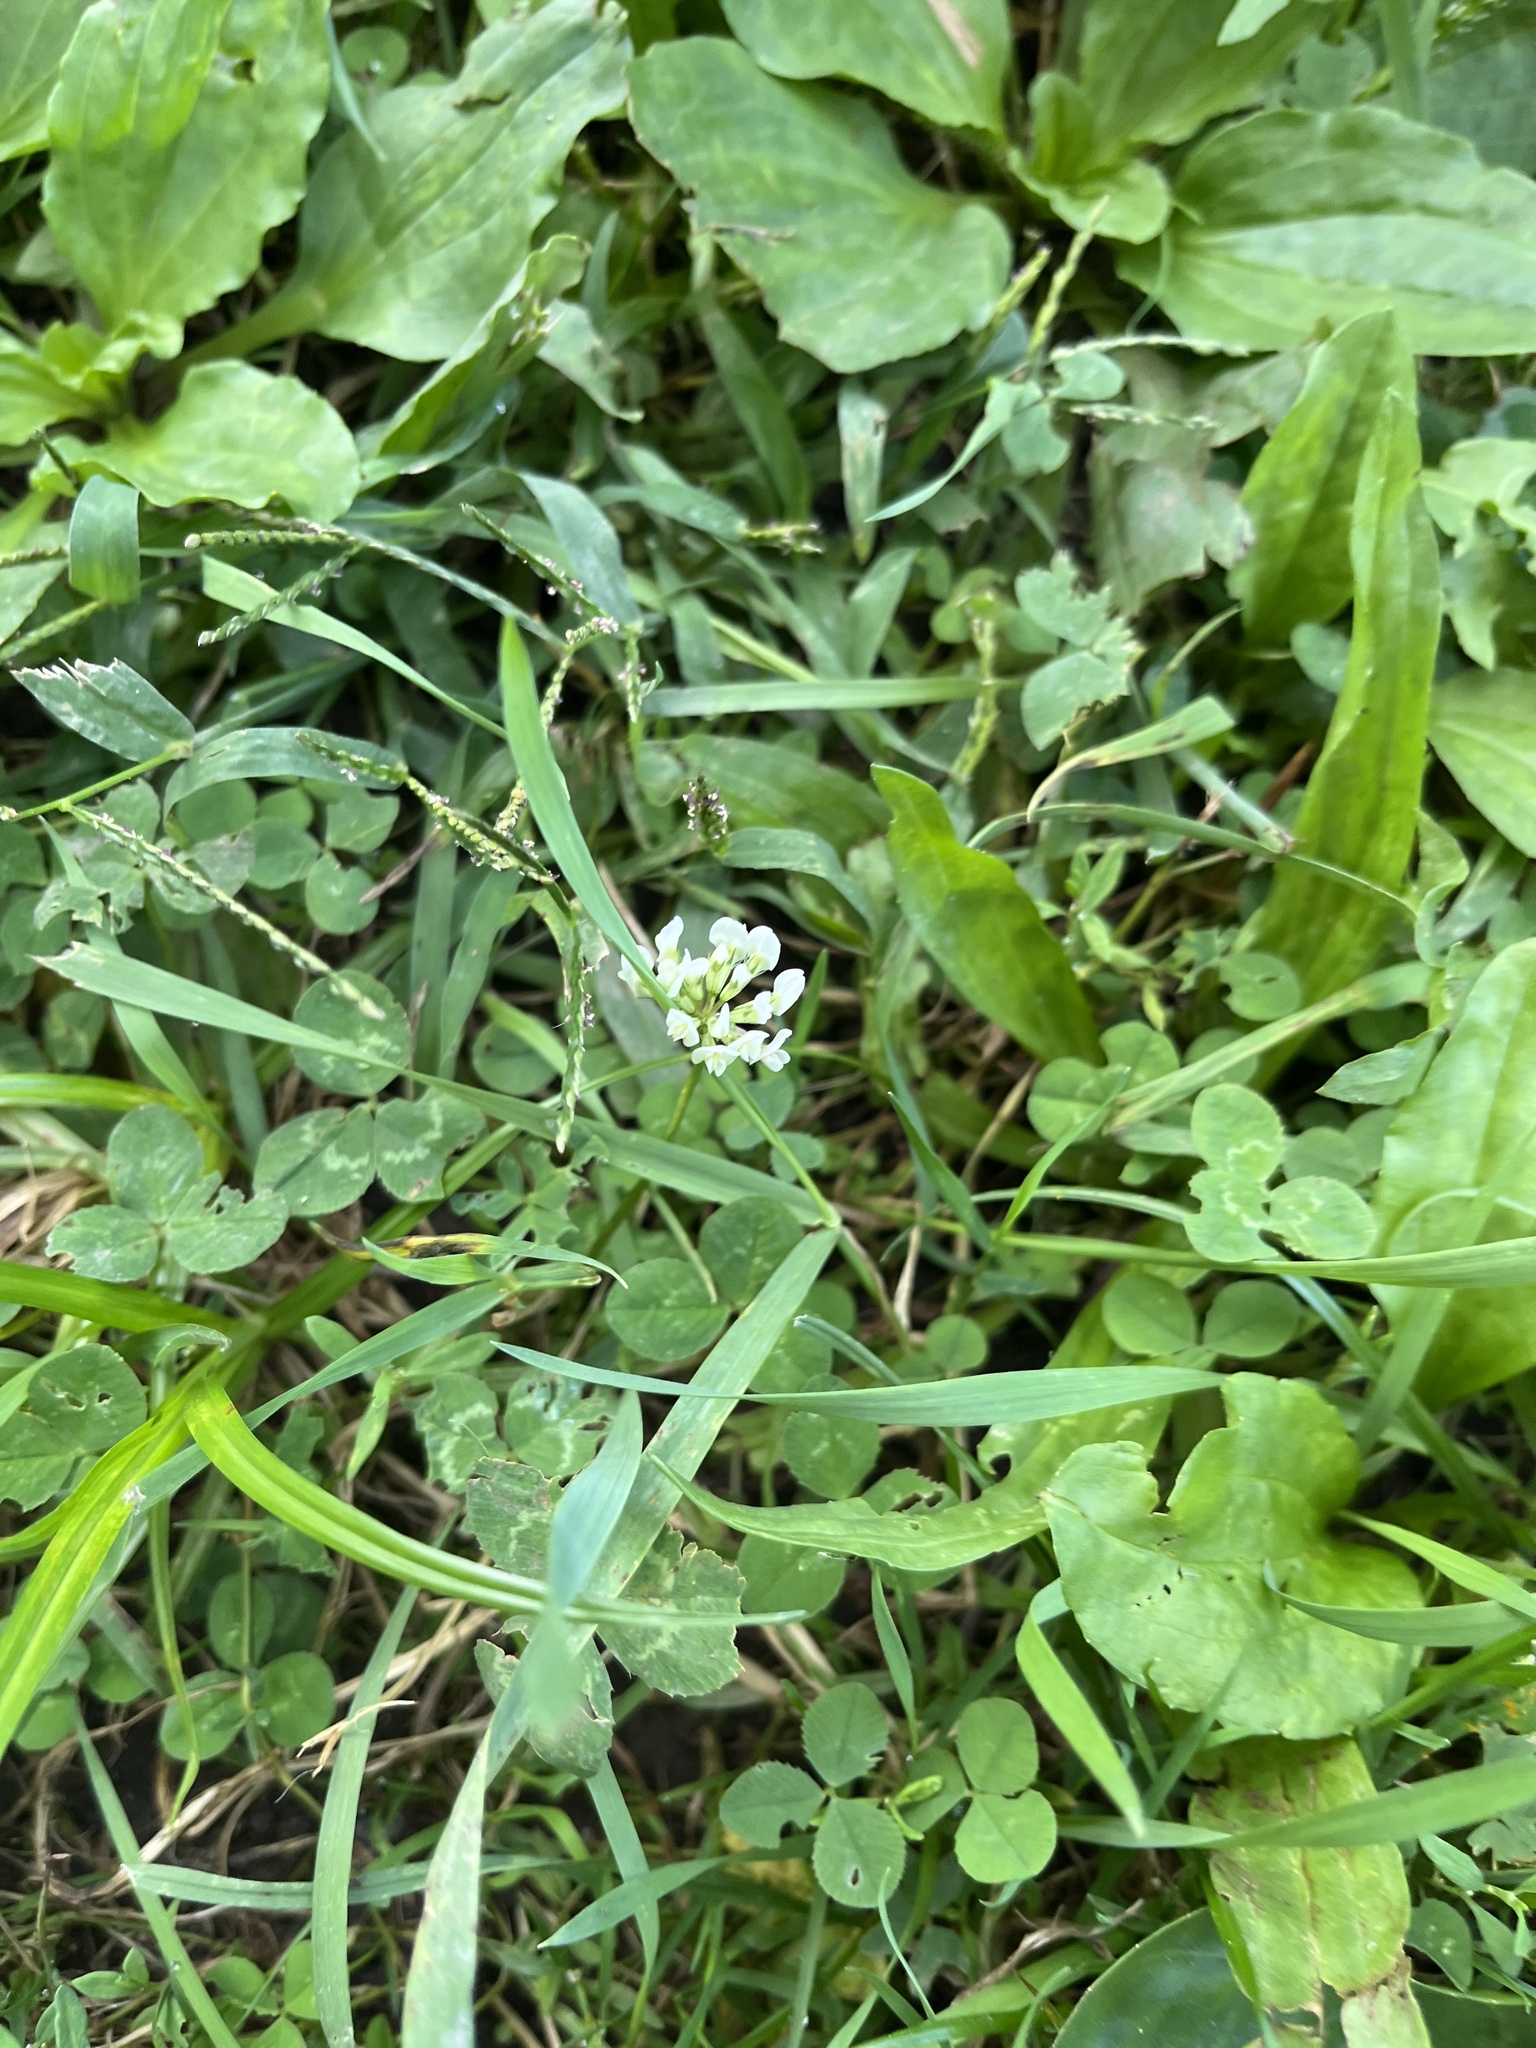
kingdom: Plantae
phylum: Tracheophyta
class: Magnoliopsida
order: Fabales
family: Fabaceae
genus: Trifolium
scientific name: Trifolium repens
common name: White clover
